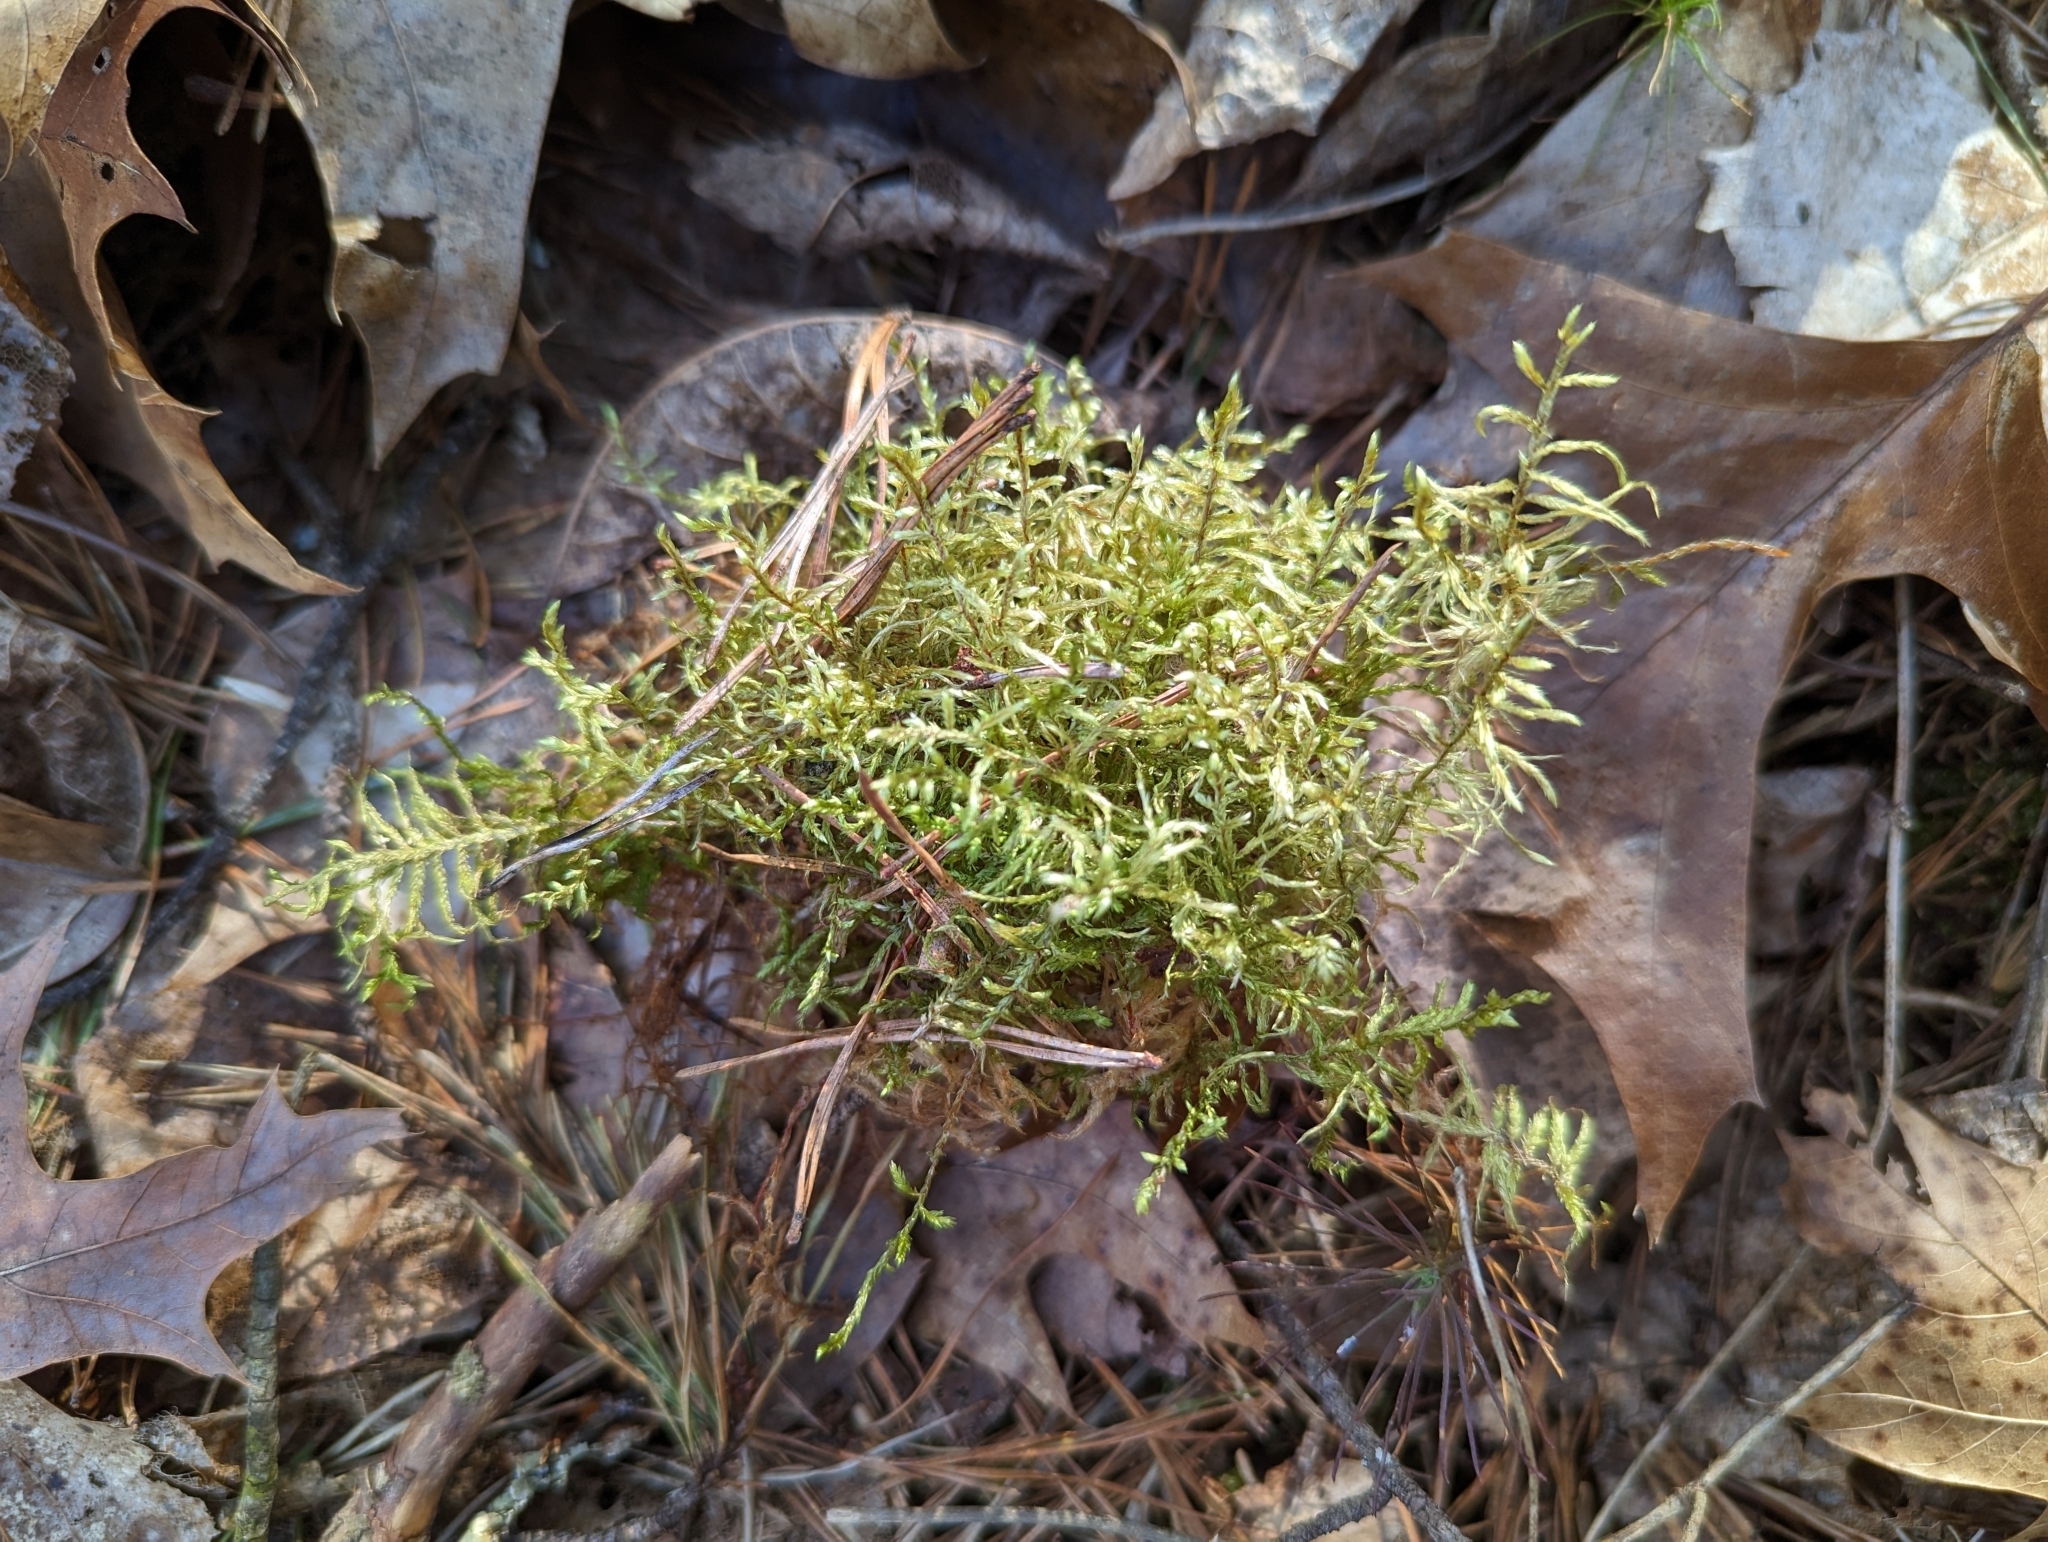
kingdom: Plantae
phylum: Bryophyta
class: Bryopsida
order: Hypnales
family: Hylocomiaceae
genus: Pleurozium
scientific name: Pleurozium schreberi
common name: Red-stemmed feather moss
